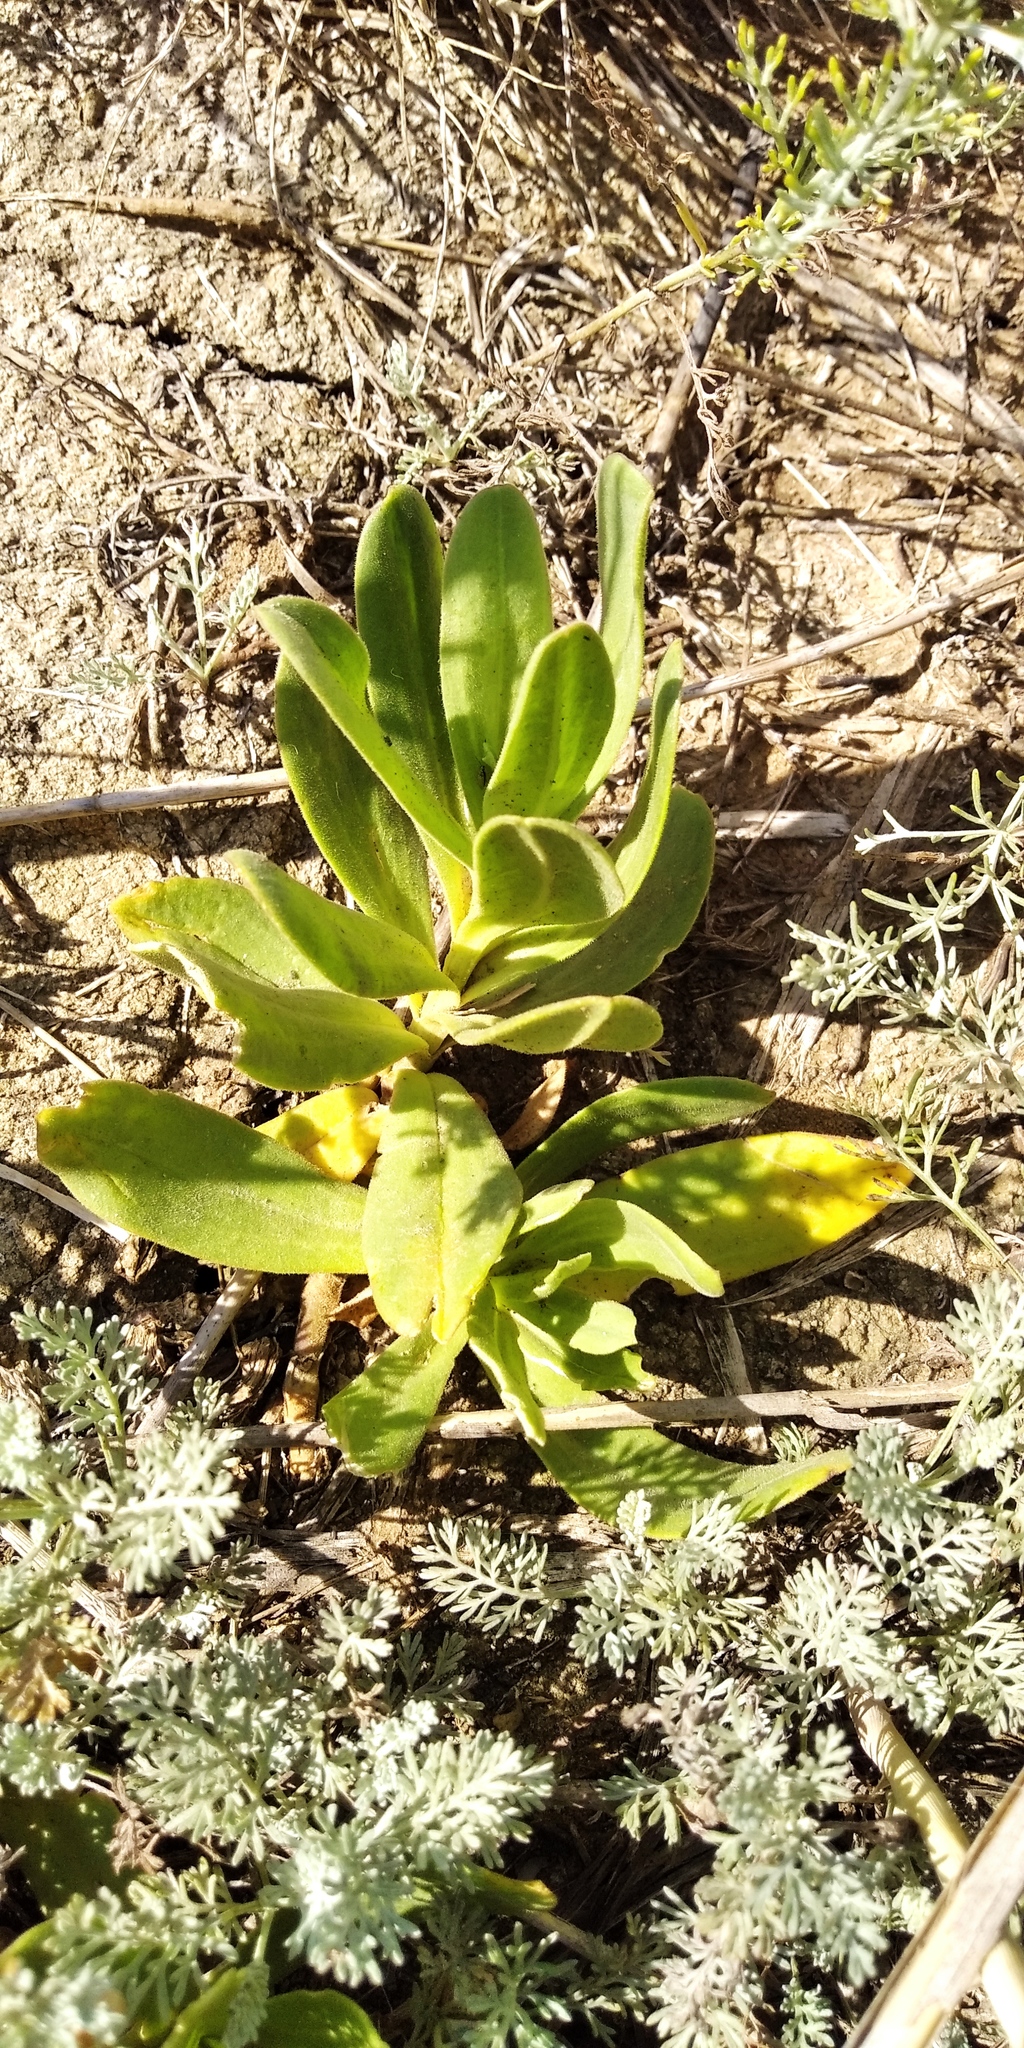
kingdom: Plantae
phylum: Tracheophyta
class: Magnoliopsida
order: Caryophyllales
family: Caryophyllaceae
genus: Gypsophila
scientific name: Gypsophila perfoliata
